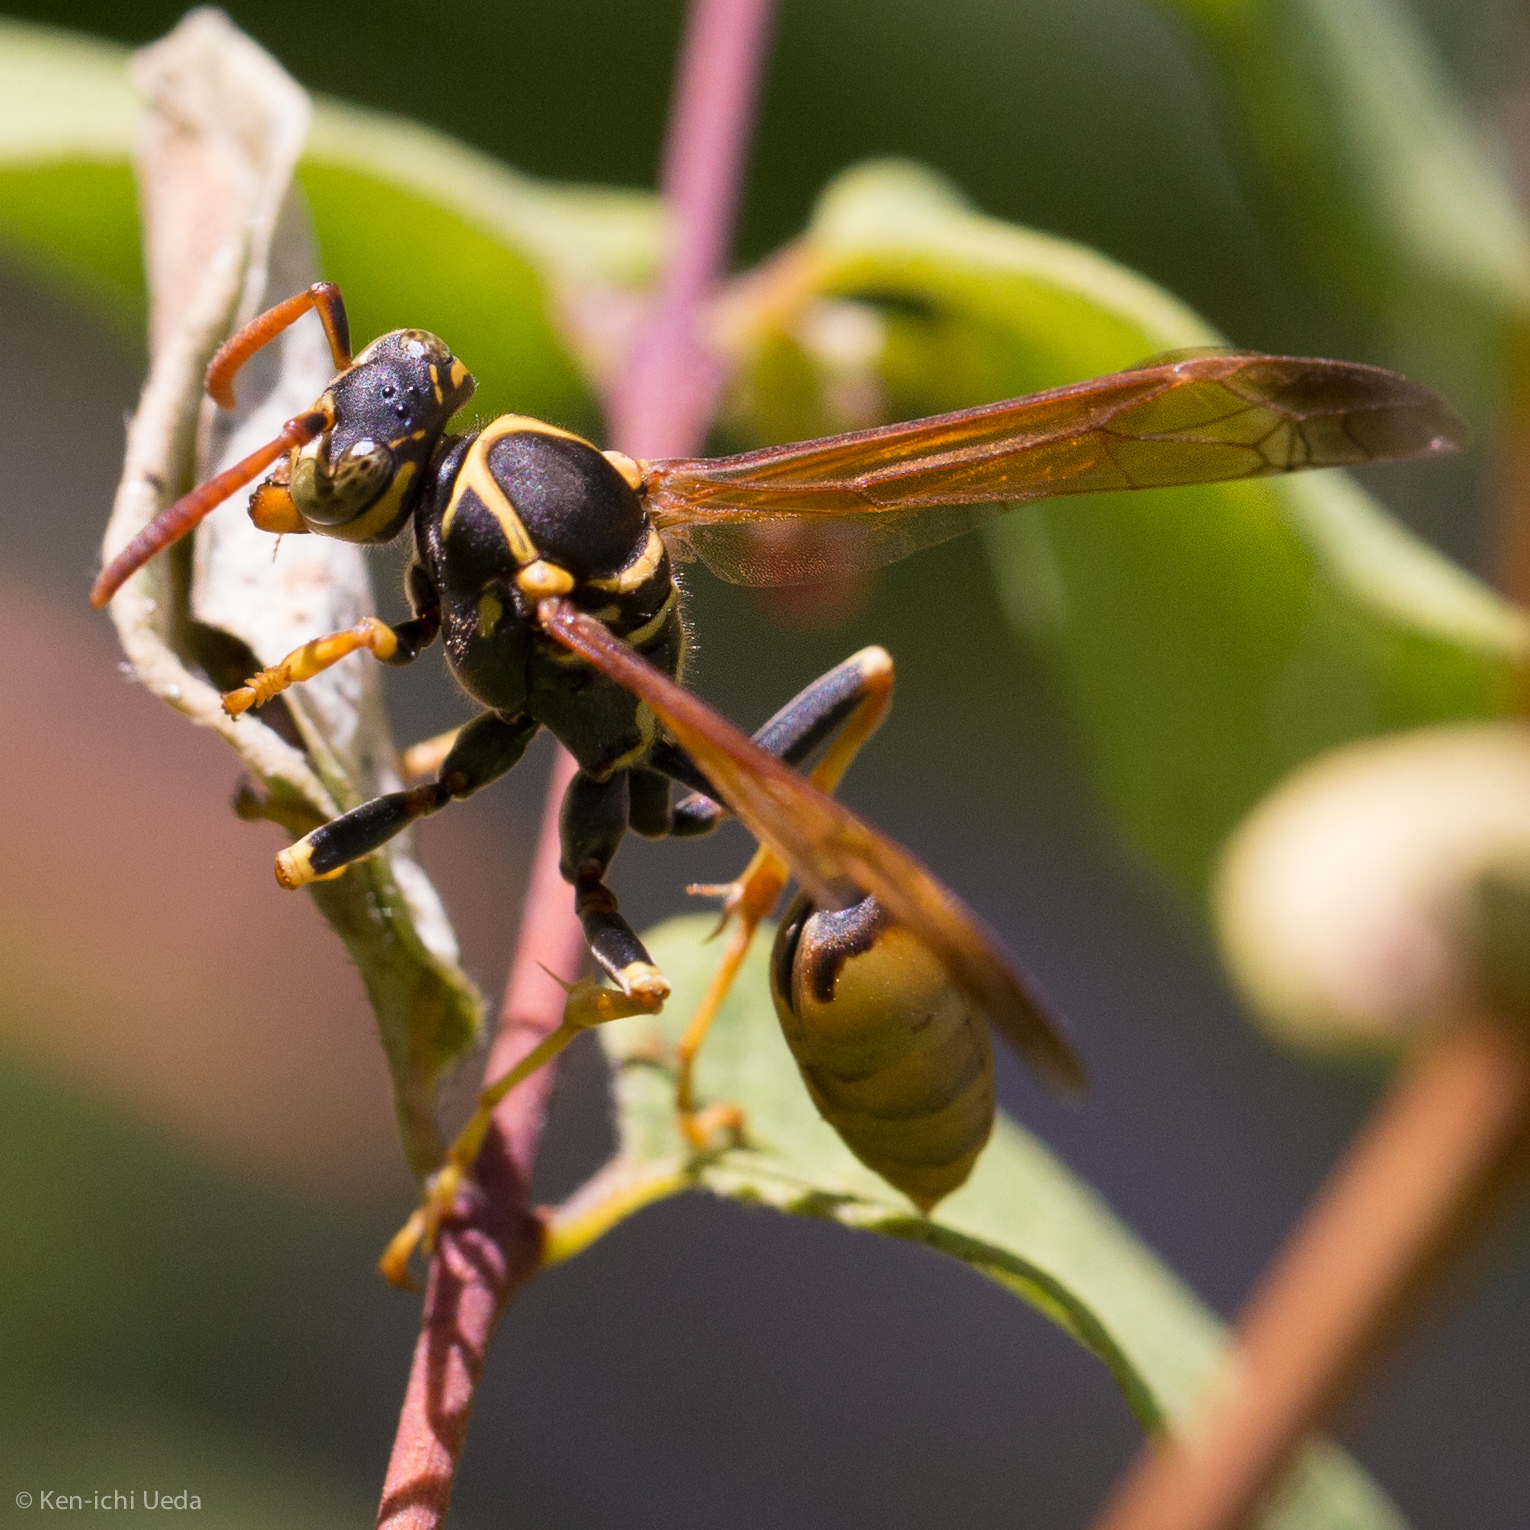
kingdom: Animalia
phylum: Arthropoda
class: Insecta
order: Hymenoptera
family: Vespidae
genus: Mischocyttarus
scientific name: Mischocyttarus flavitarsis
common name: Wasp
